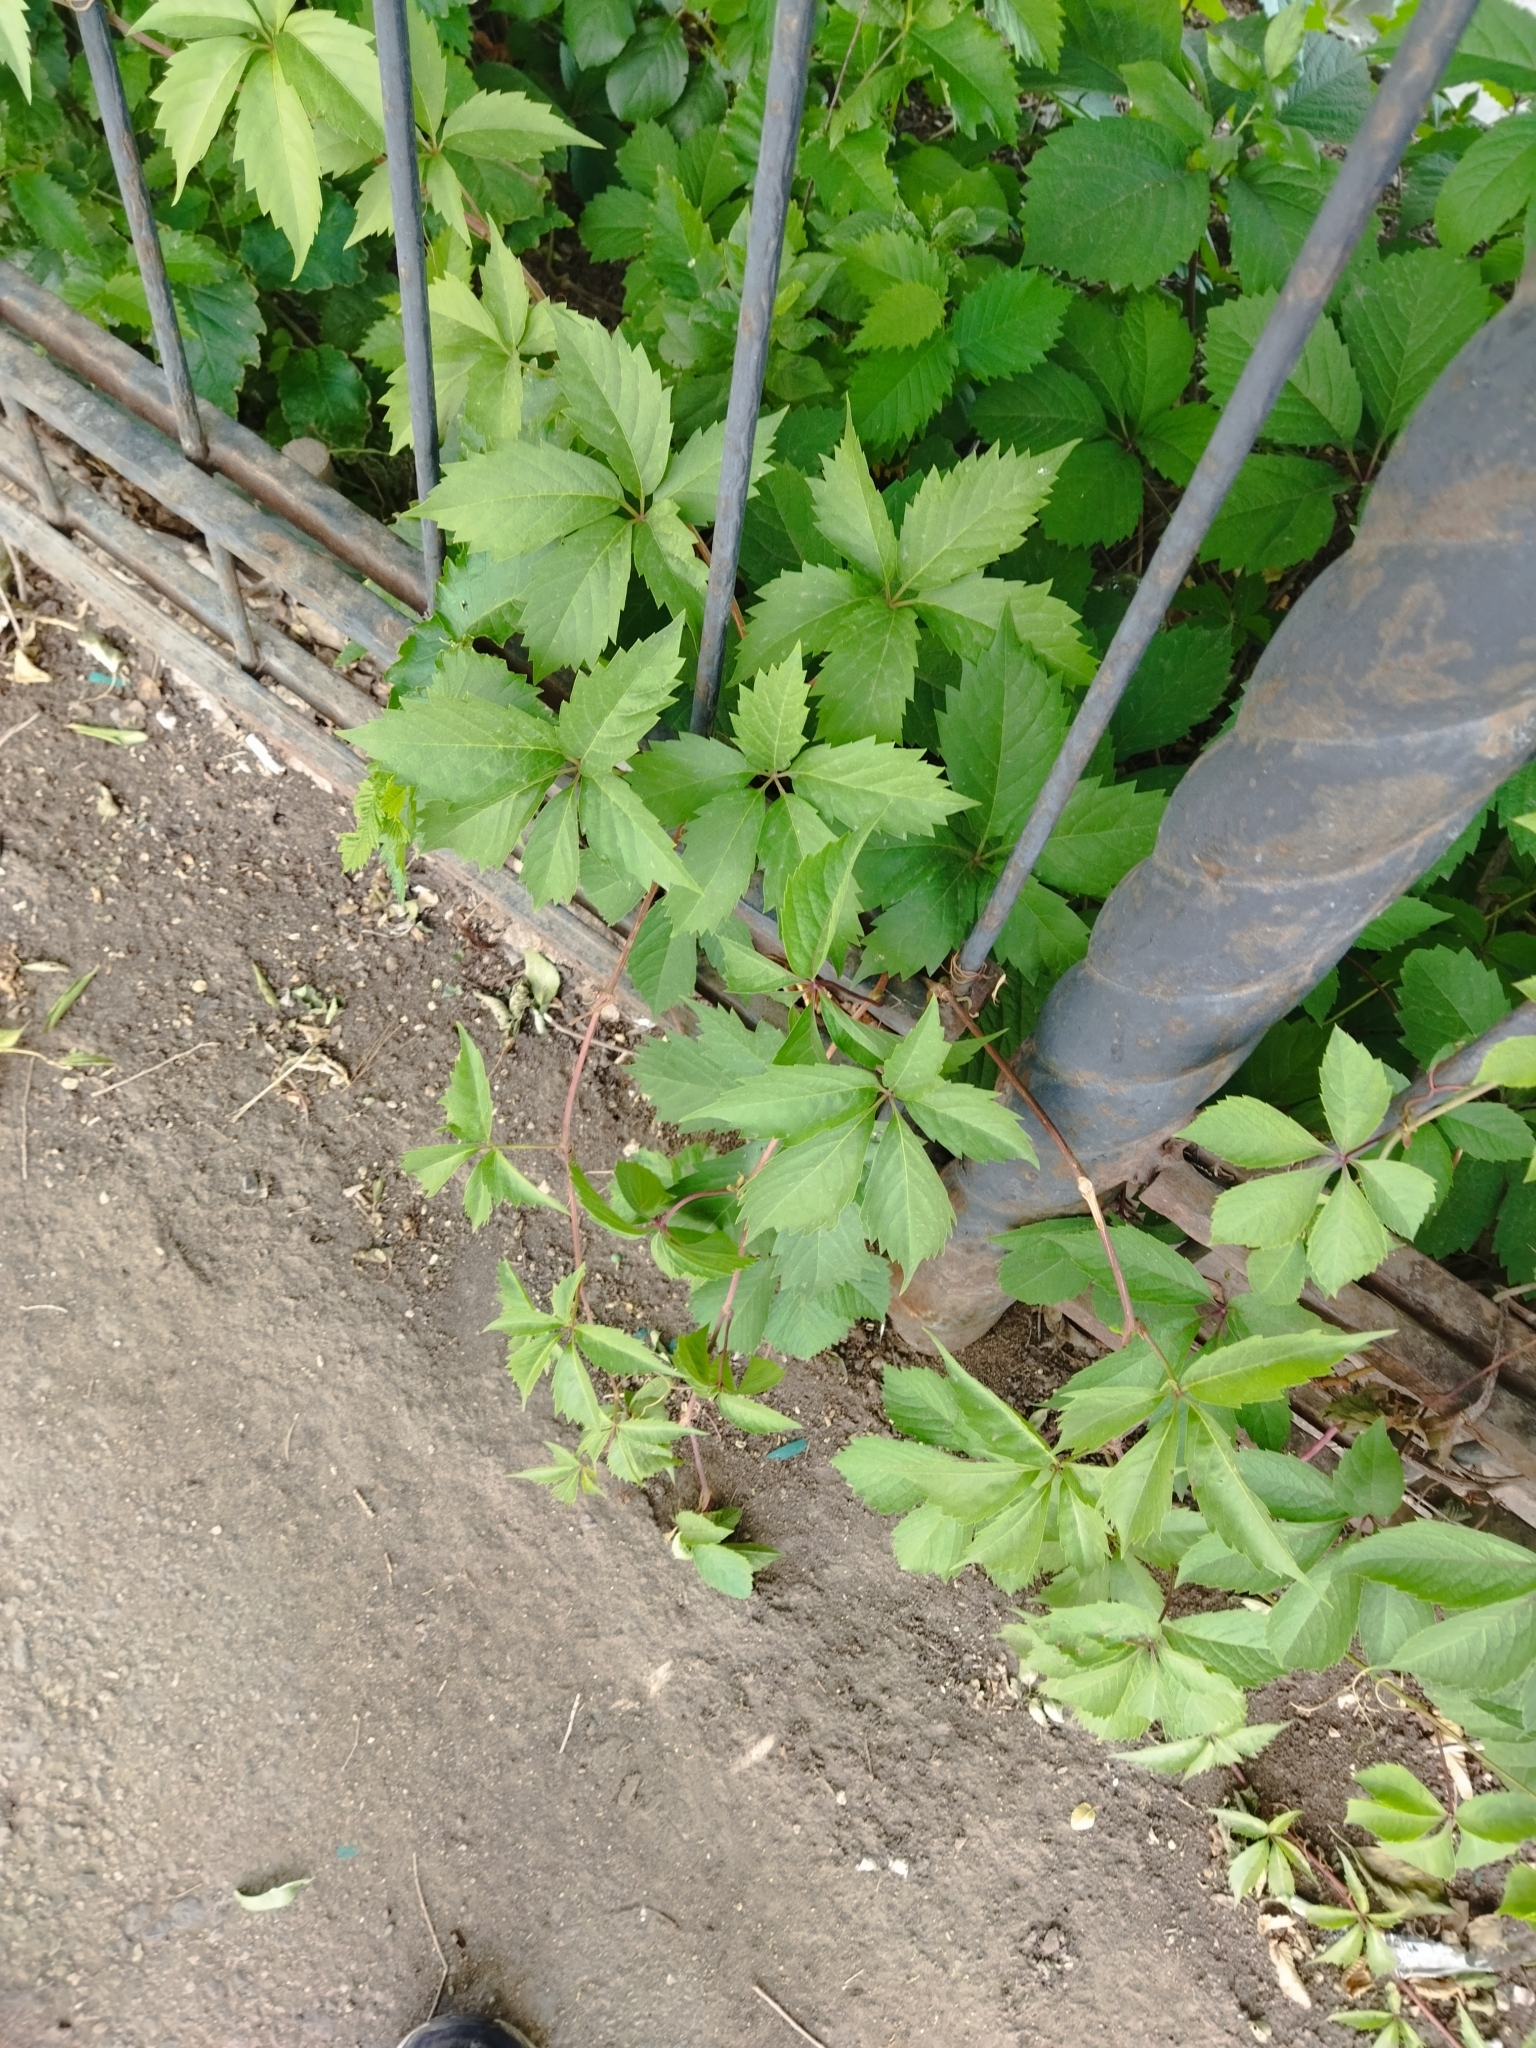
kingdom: Plantae
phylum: Tracheophyta
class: Magnoliopsida
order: Vitales
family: Vitaceae
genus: Parthenocissus
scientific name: Parthenocissus quinquefolia
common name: Virginia-creeper
